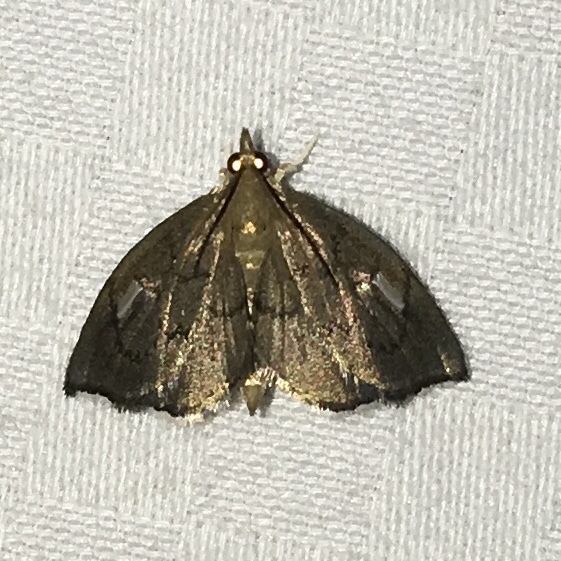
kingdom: Animalia
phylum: Arthropoda
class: Insecta
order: Lepidoptera
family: Crambidae
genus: Perispasta
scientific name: Perispasta caeculalis
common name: Titian peale's moth
